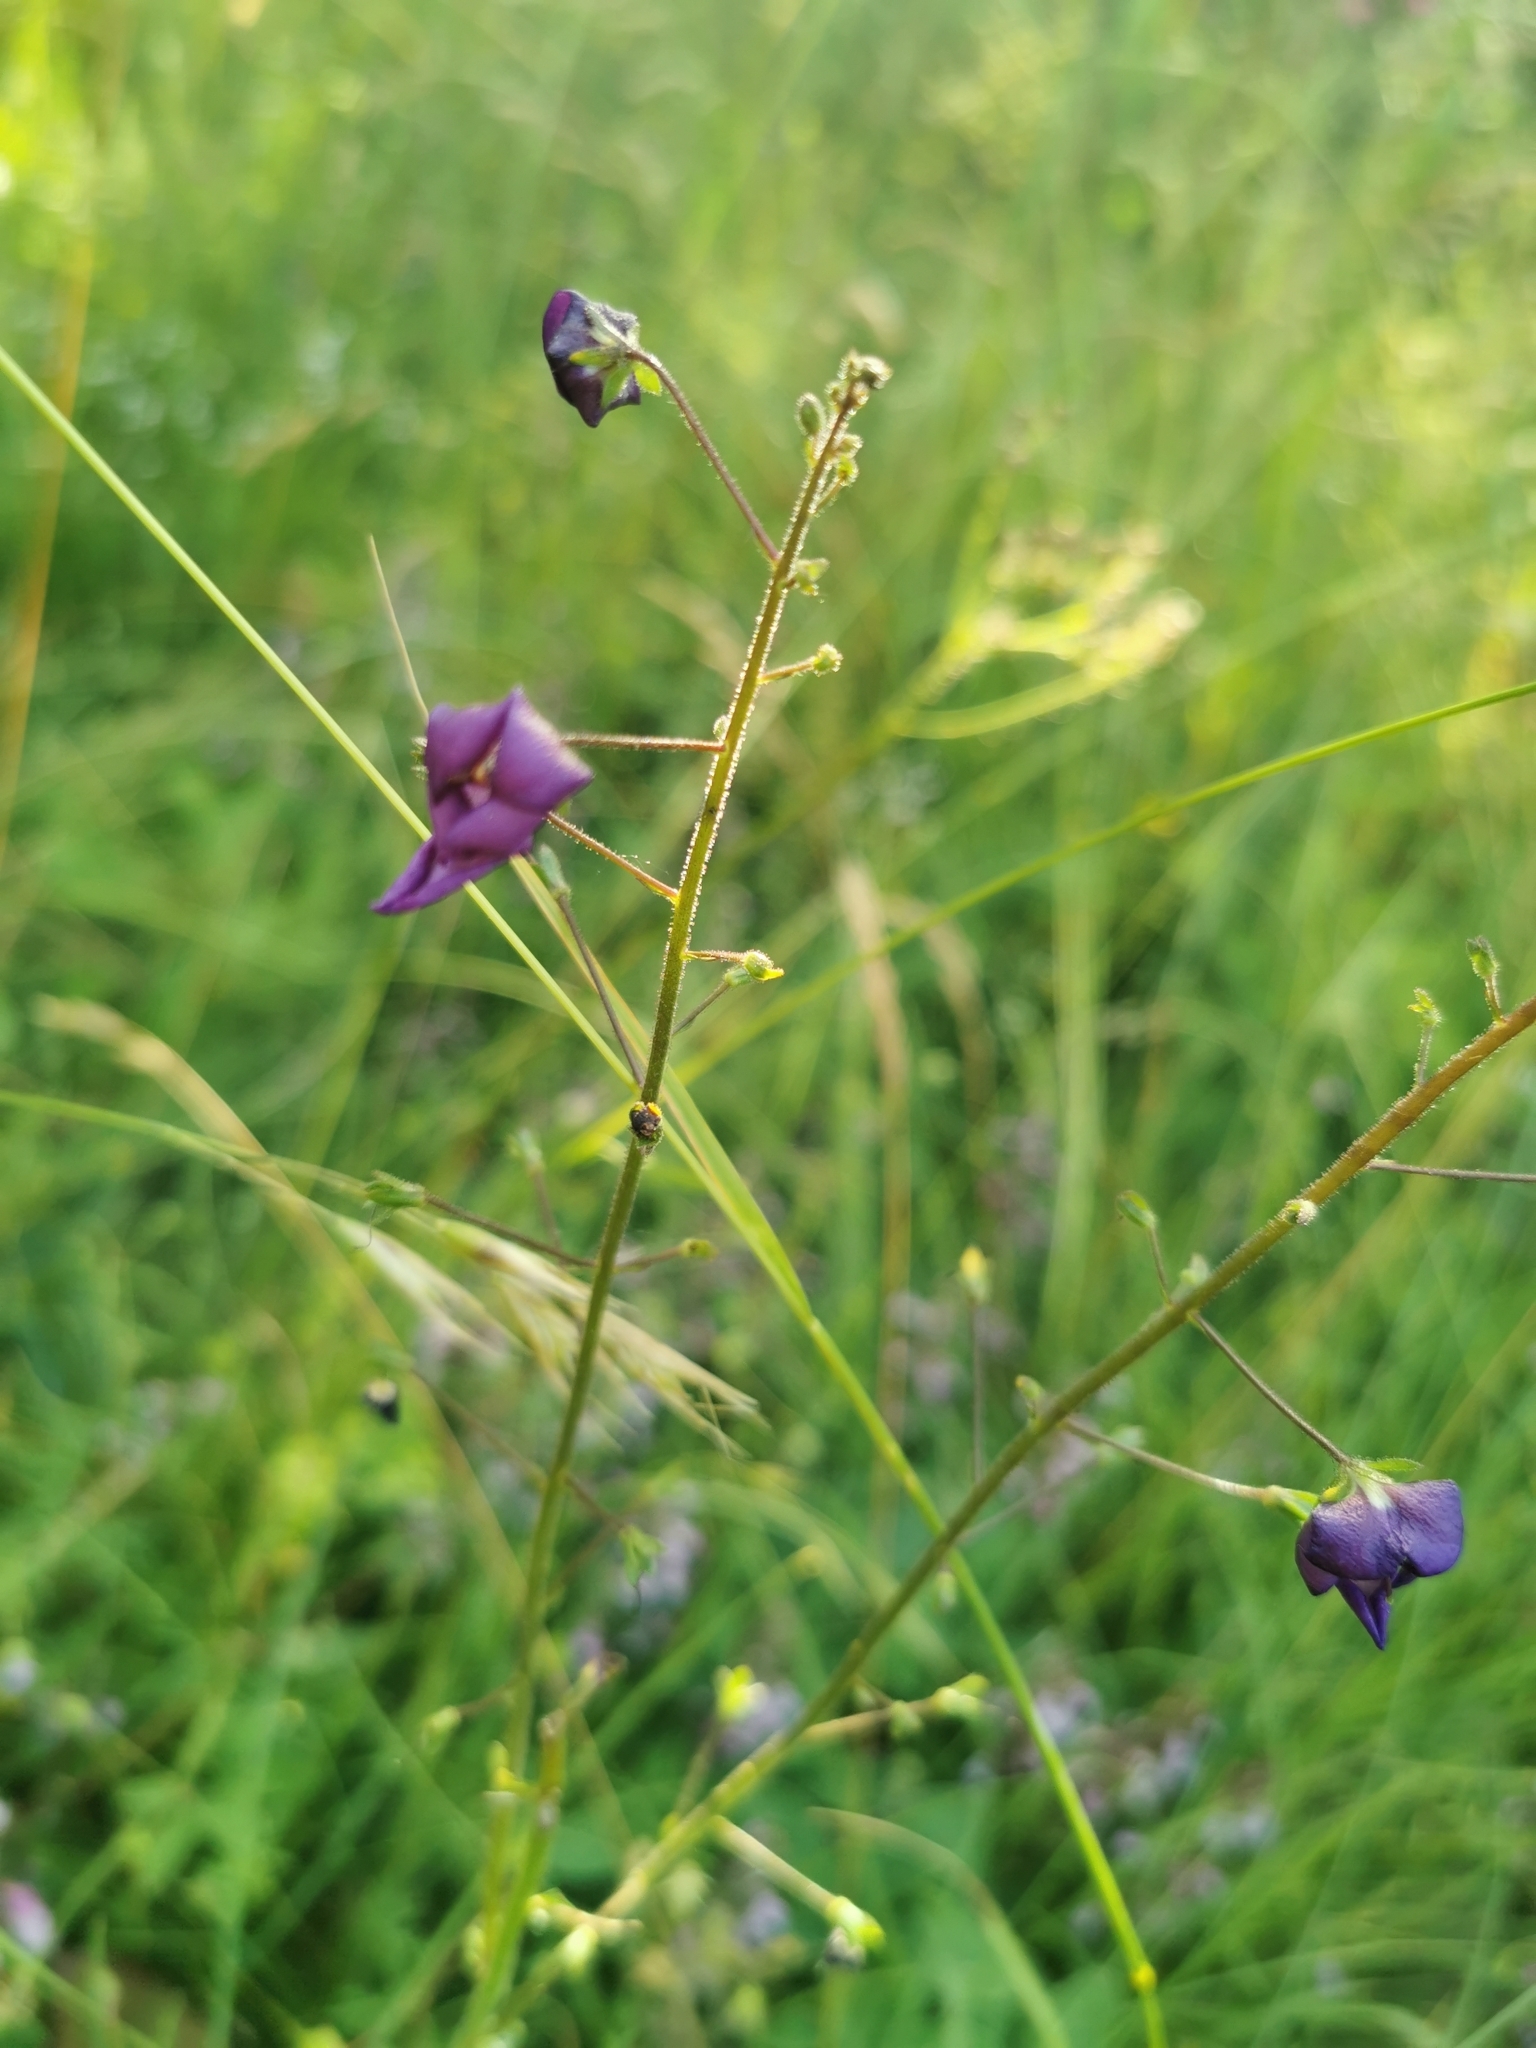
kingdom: Plantae
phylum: Tracheophyta
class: Magnoliopsida
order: Lamiales
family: Scrophulariaceae
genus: Verbascum
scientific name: Verbascum phoeniceum
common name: Purple mullein
